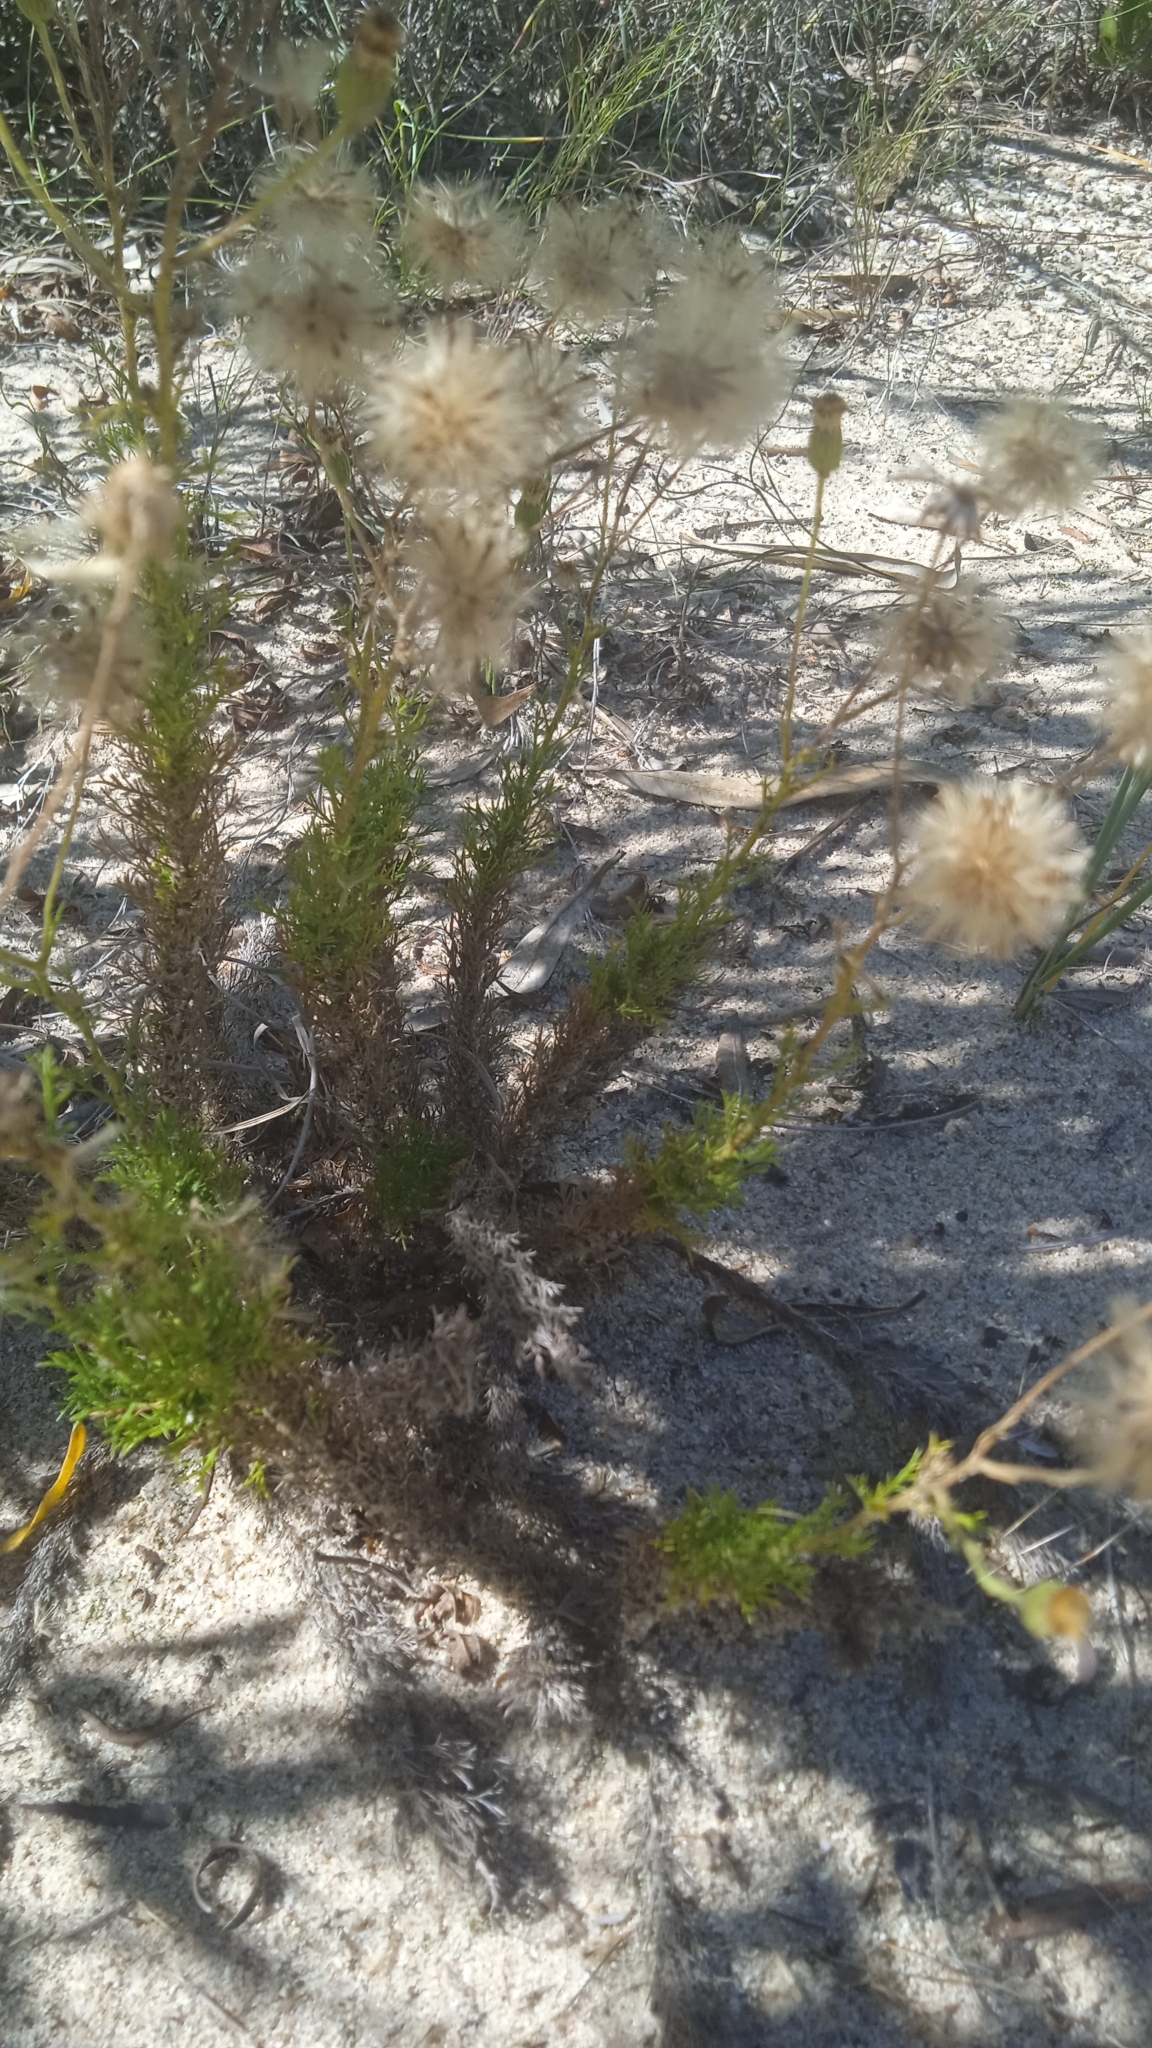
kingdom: Plantae
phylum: Tracheophyta
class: Magnoliopsida
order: Asterales
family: Asteraceae
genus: Sommerfeltia
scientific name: Sommerfeltia spinulosa
